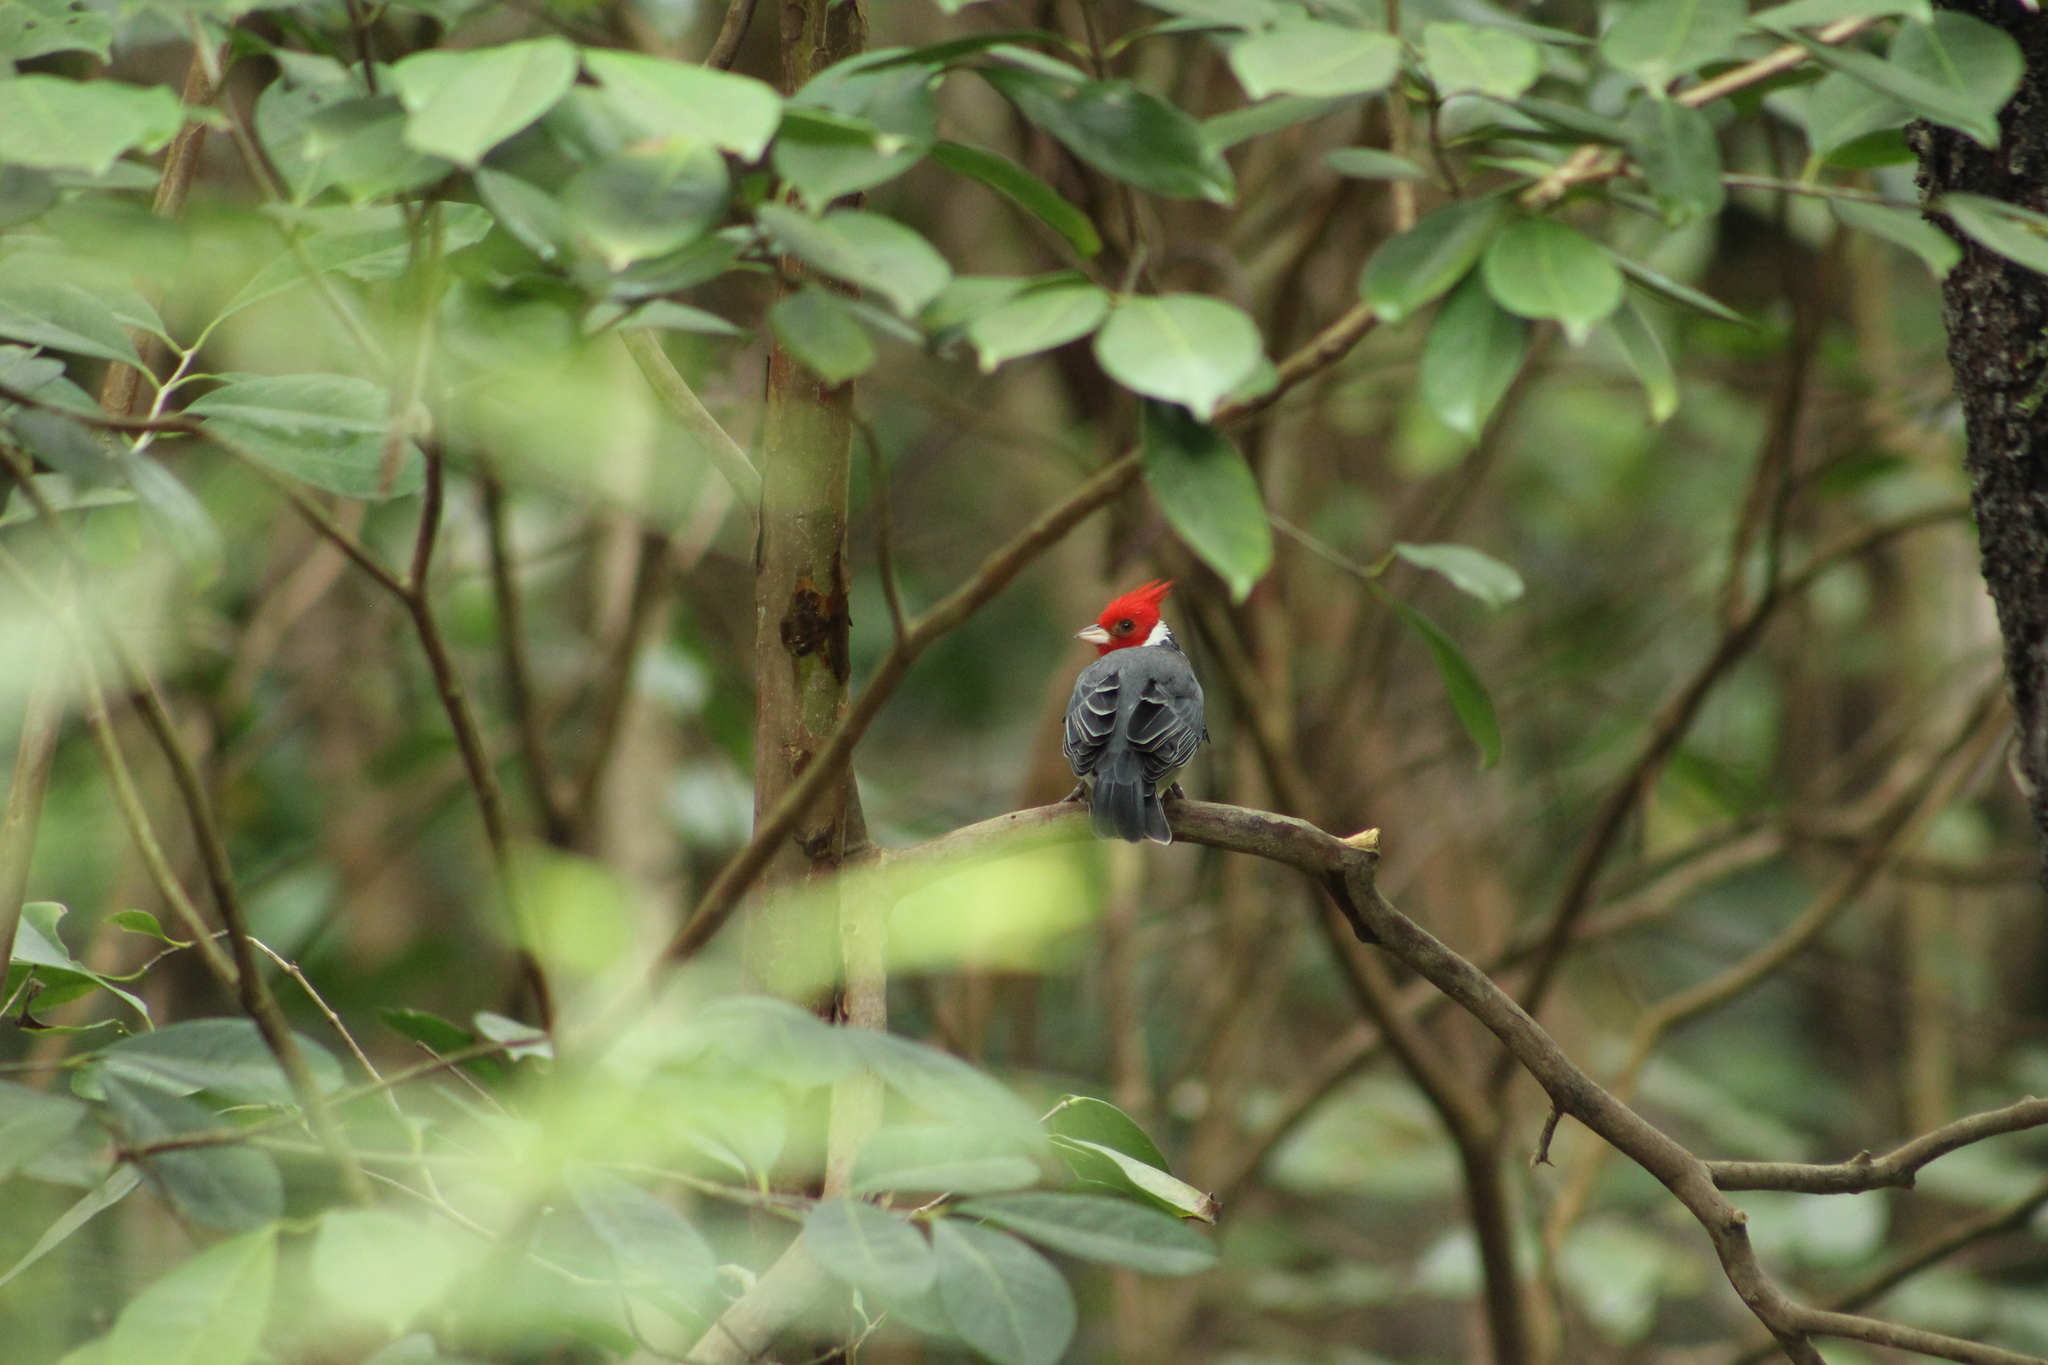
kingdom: Animalia
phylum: Chordata
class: Aves
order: Passeriformes
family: Thraupidae
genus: Paroaria
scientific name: Paroaria coronata
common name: Red-crested cardinal
